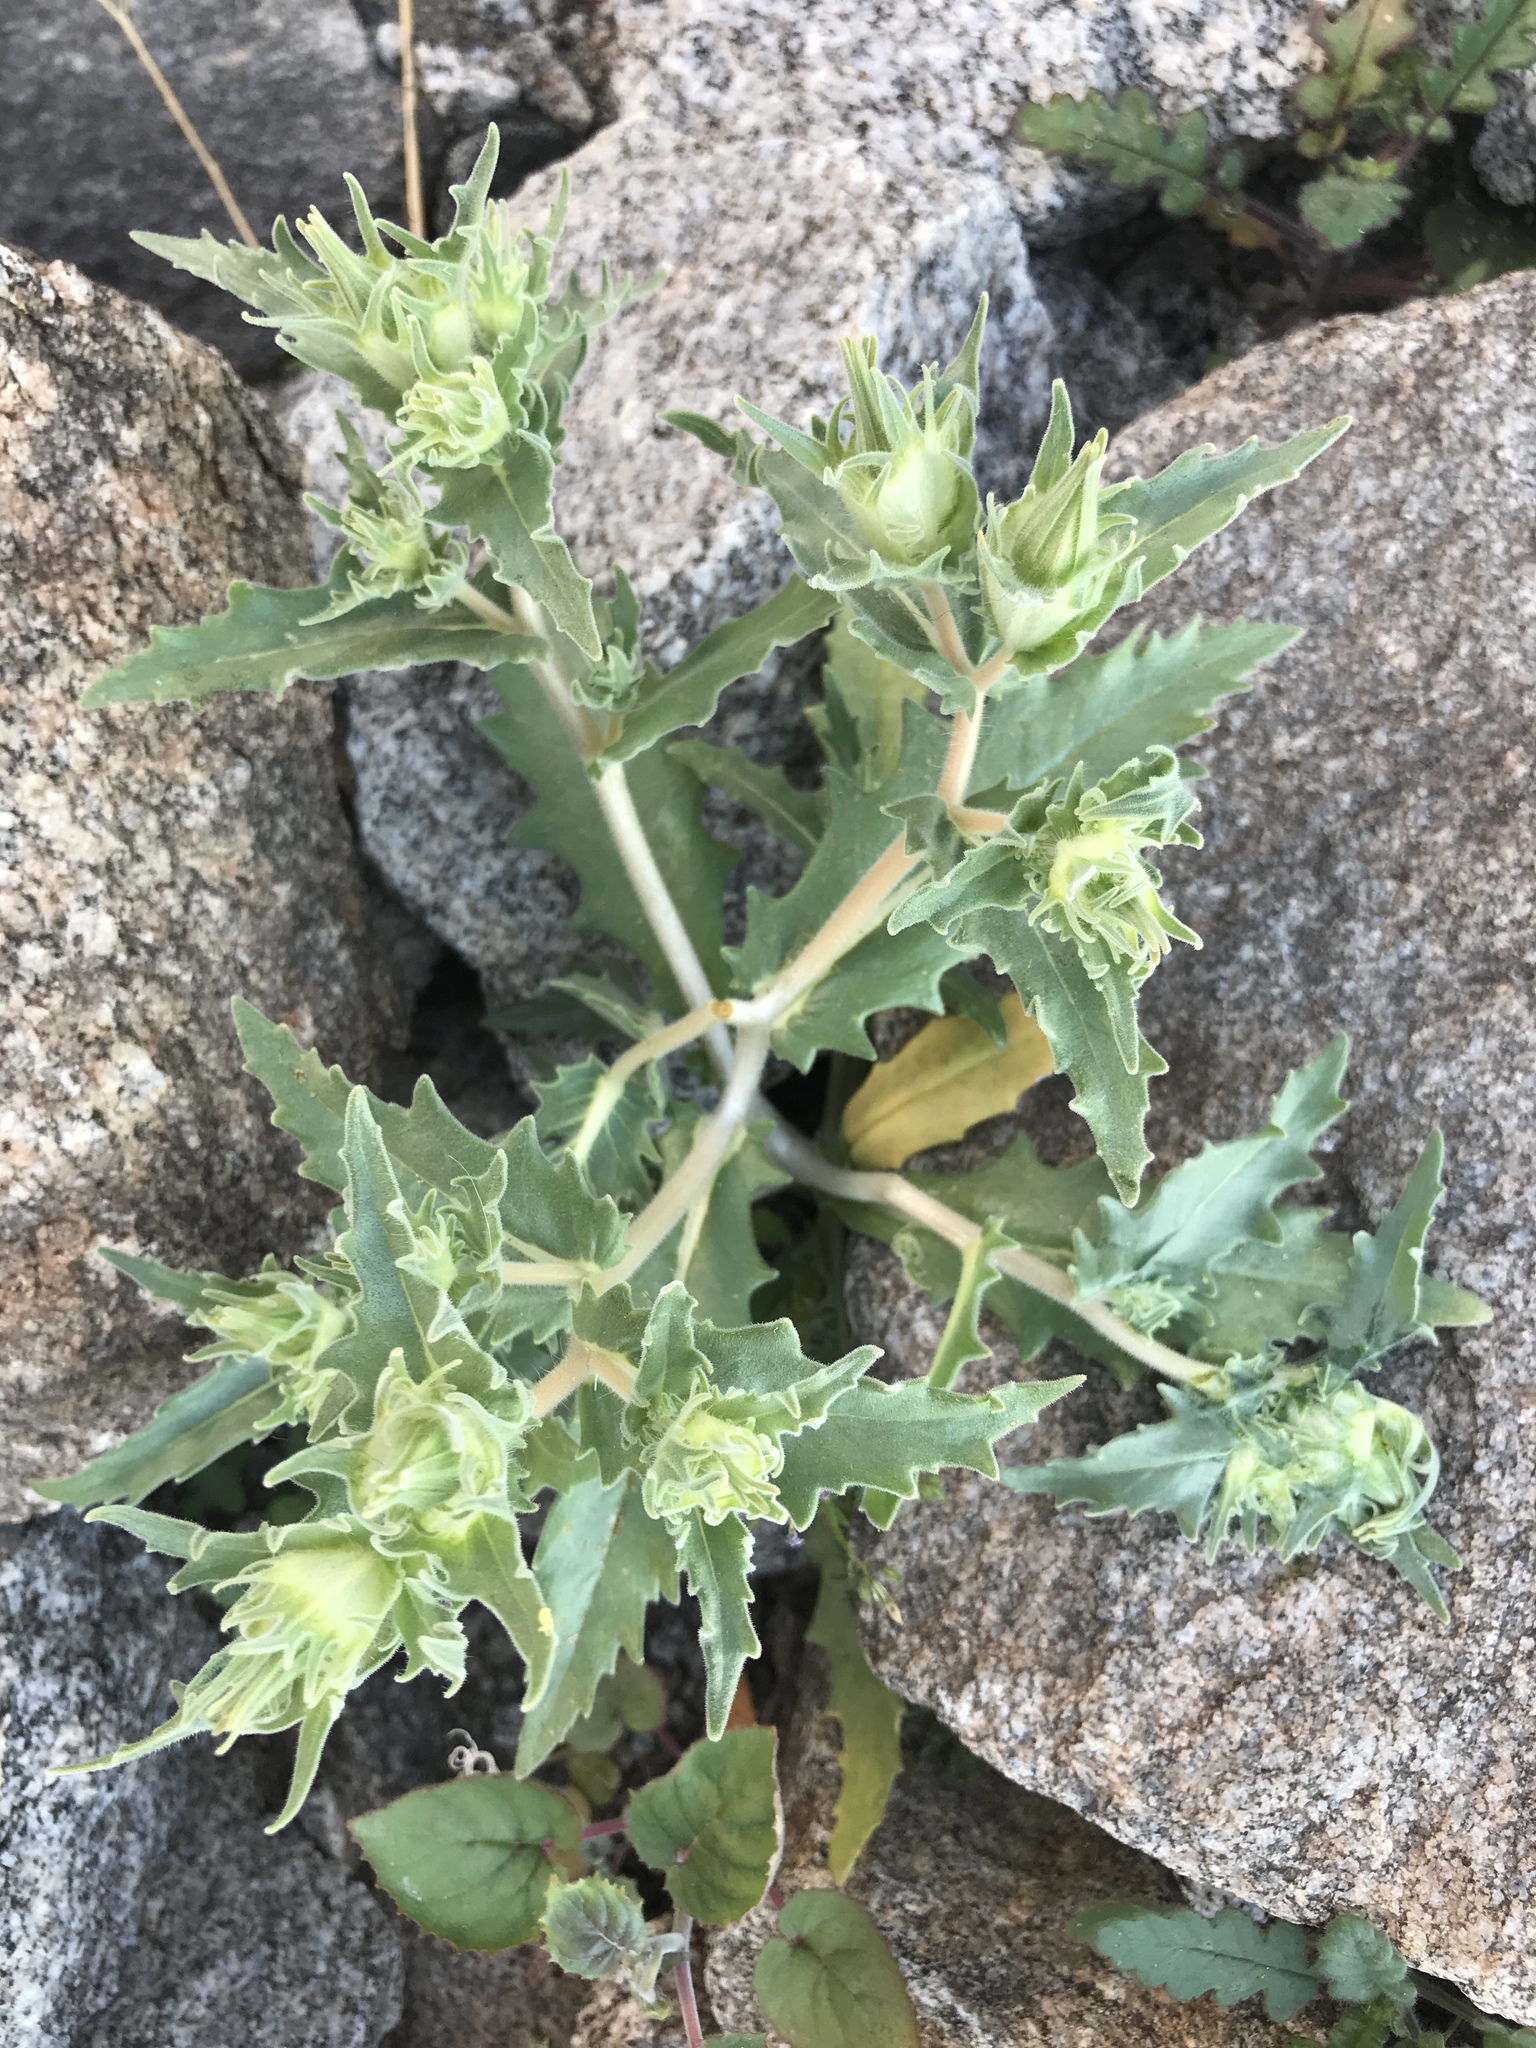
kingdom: Plantae
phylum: Tracheophyta
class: Magnoliopsida
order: Cornales
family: Loasaceae
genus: Mentzelia
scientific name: Mentzelia involucrata
